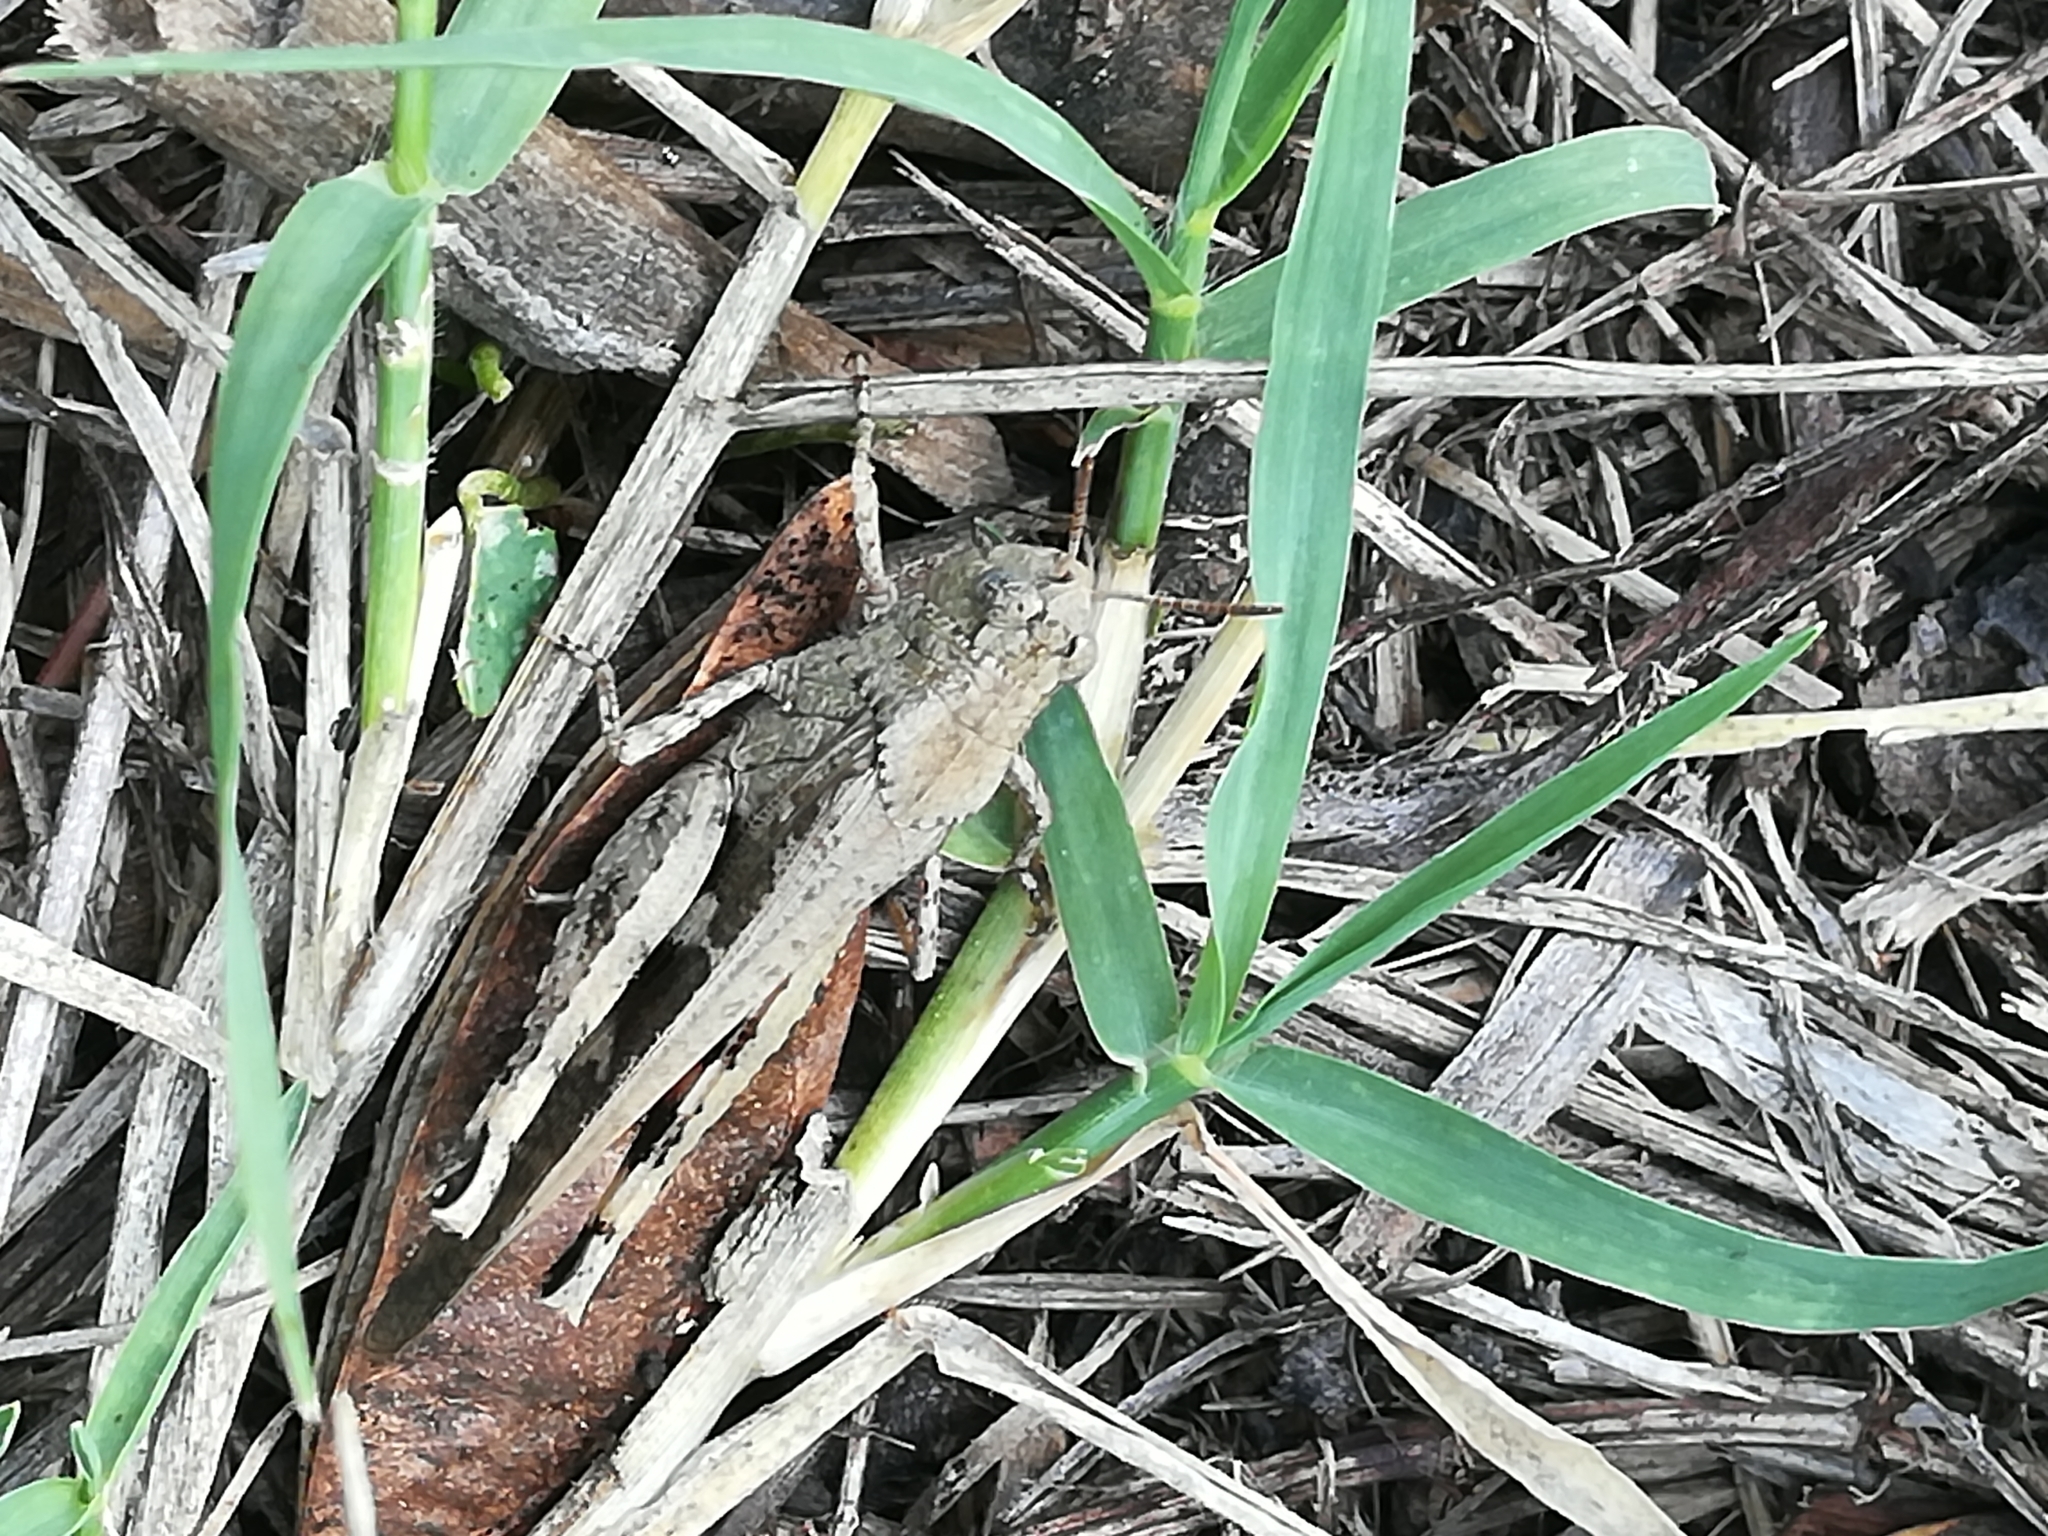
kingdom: Animalia
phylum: Arthropoda
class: Insecta
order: Orthoptera
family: Acrididae
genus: Aiolopus
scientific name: Aiolopus strepens
